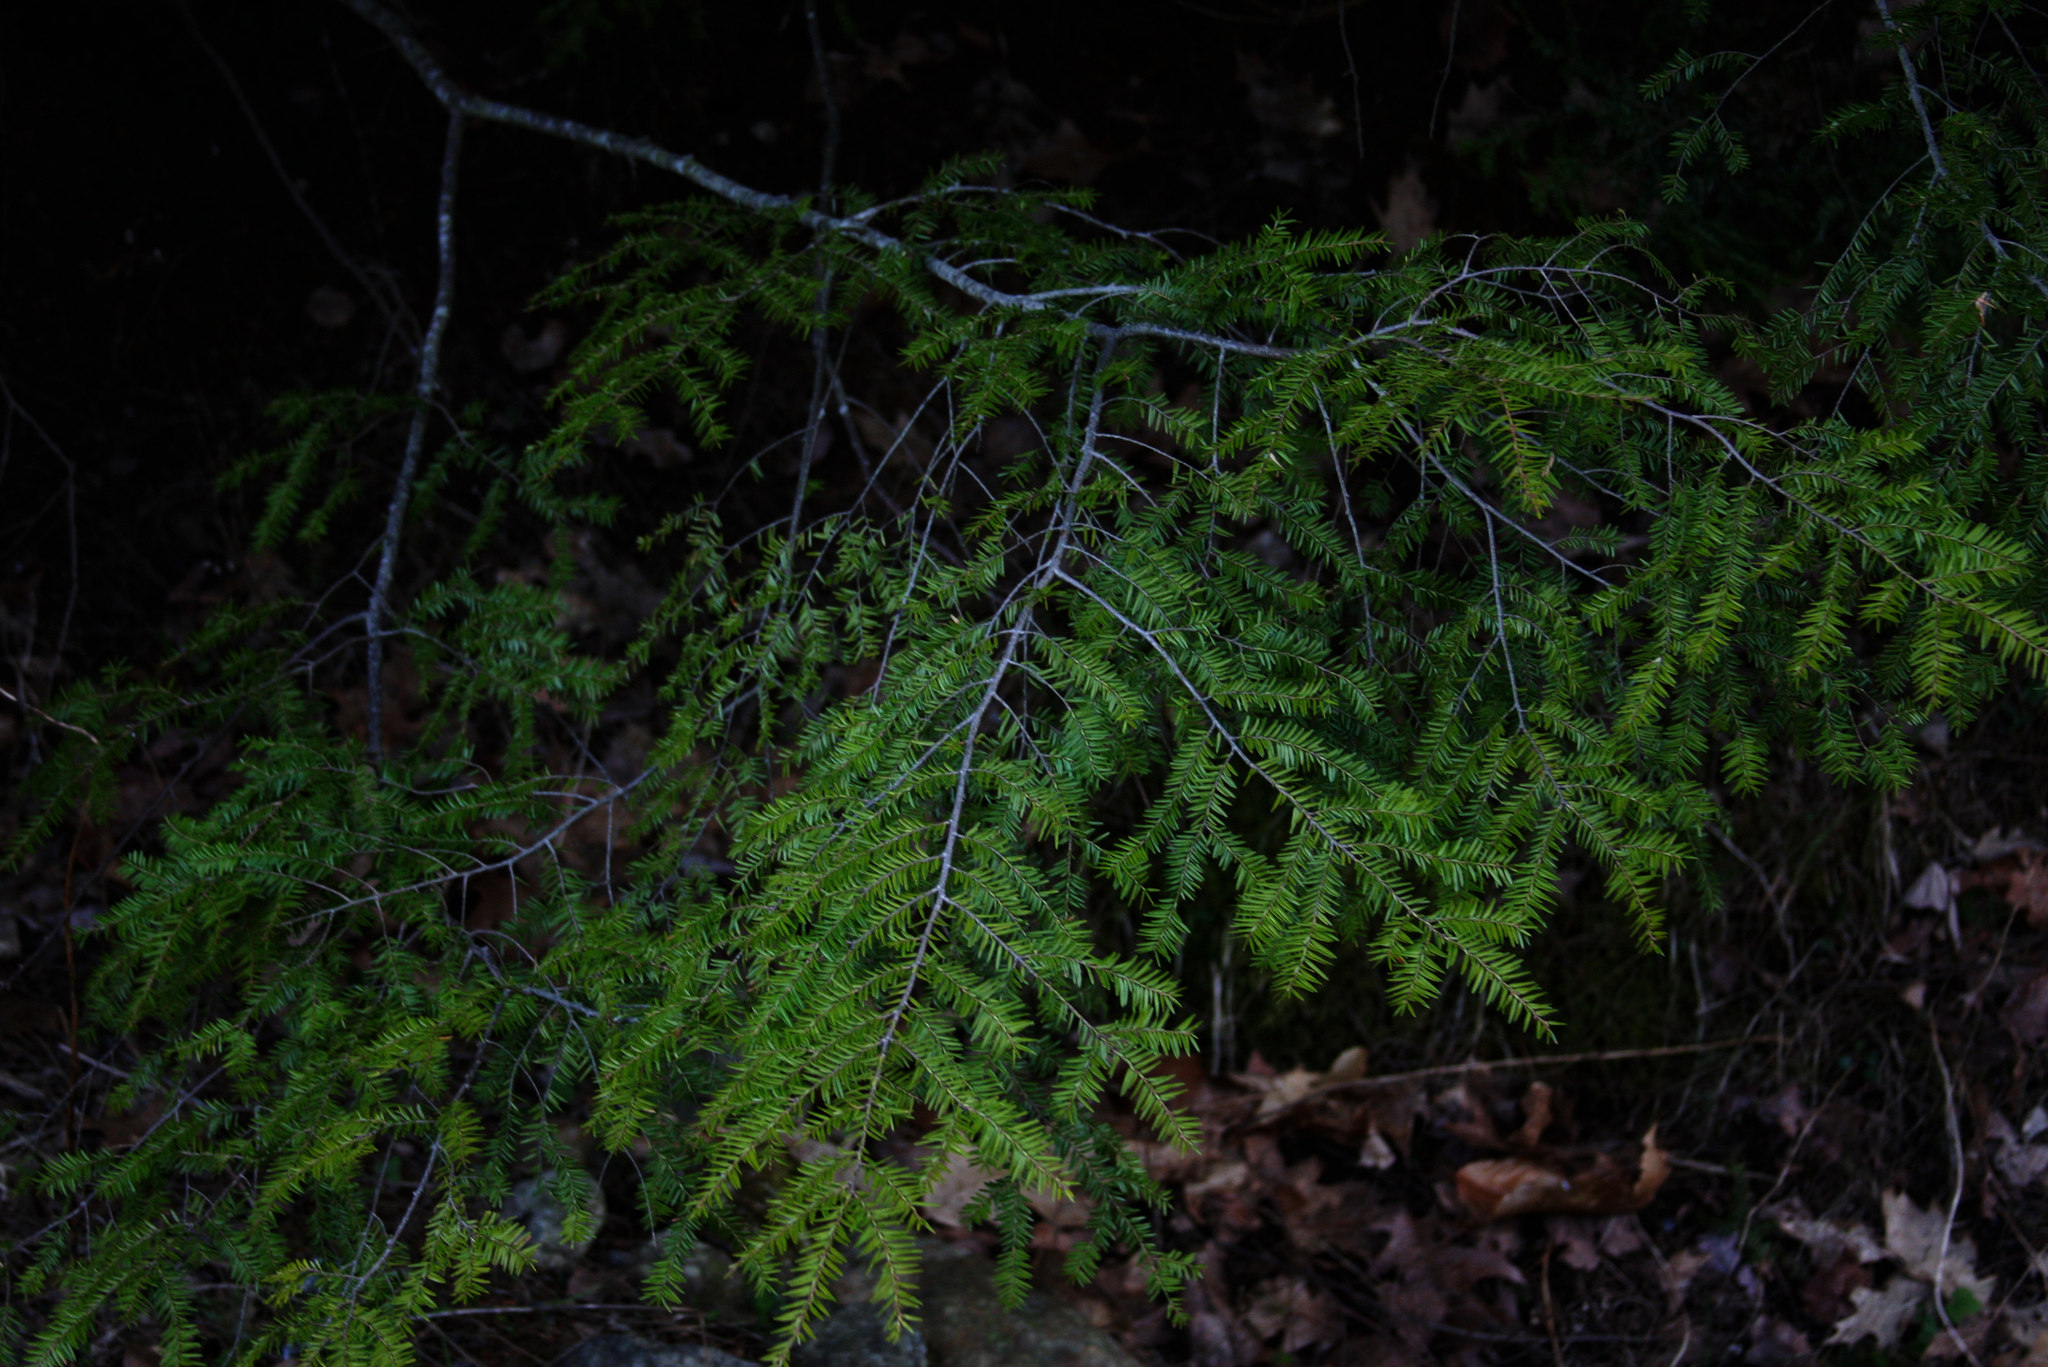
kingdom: Plantae
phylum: Tracheophyta
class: Pinopsida
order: Pinales
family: Pinaceae
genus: Tsuga
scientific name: Tsuga canadensis
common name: Eastern hemlock
